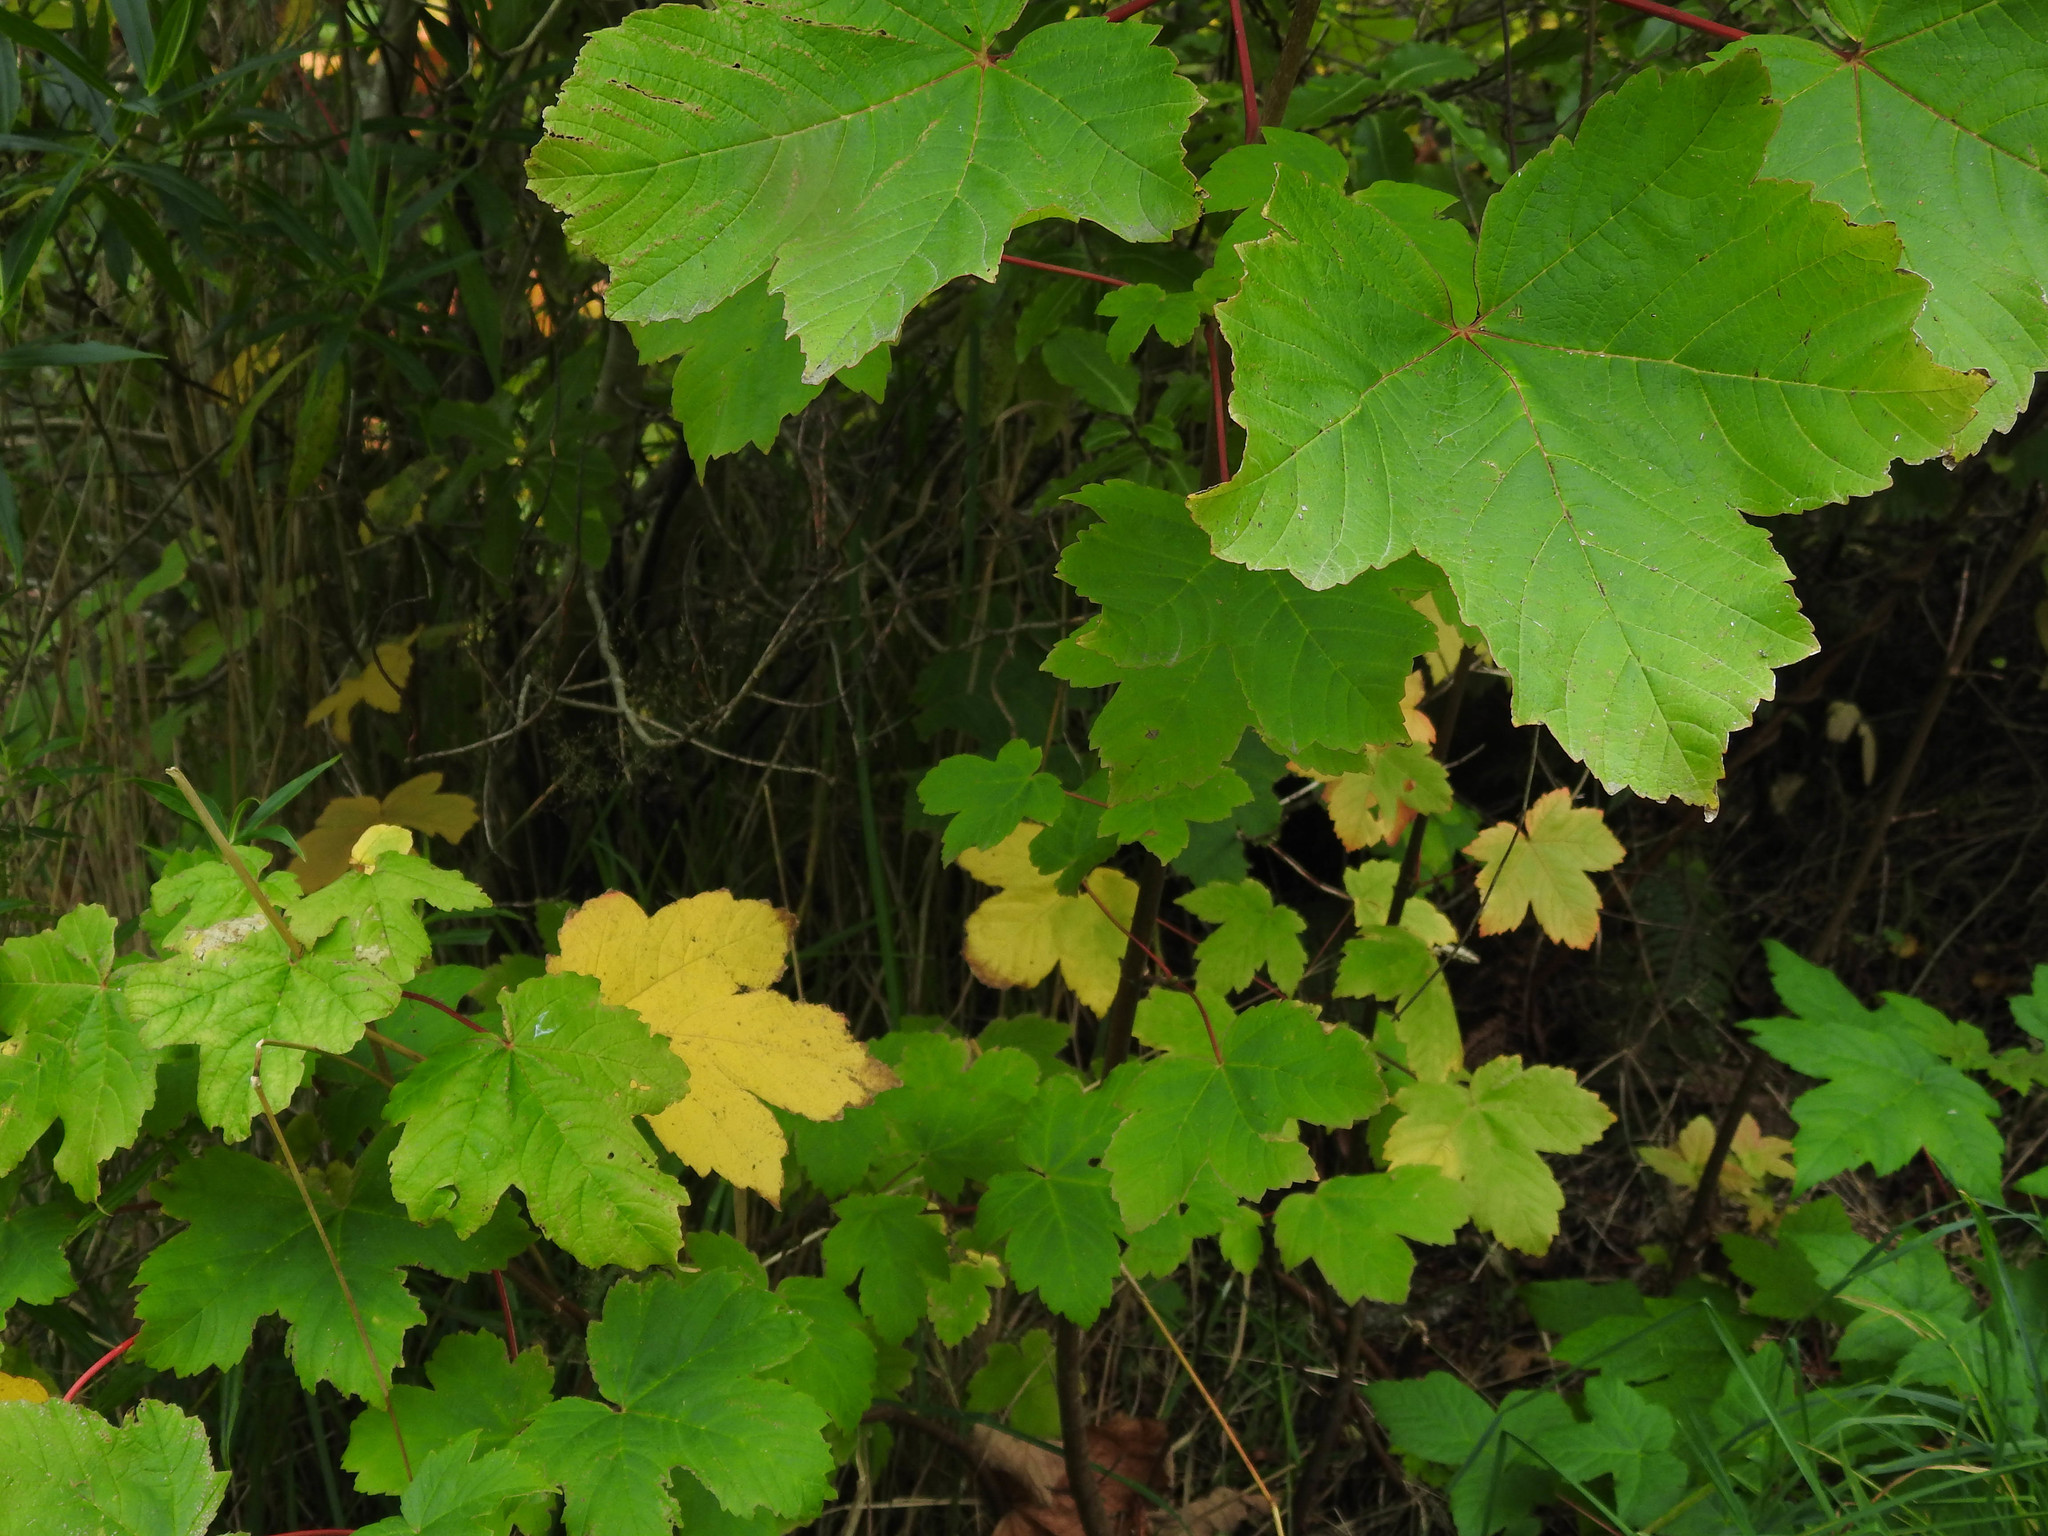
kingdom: Plantae
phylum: Tracheophyta
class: Magnoliopsida
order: Sapindales
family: Sapindaceae
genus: Acer
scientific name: Acer pseudoplatanus
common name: Sycamore
